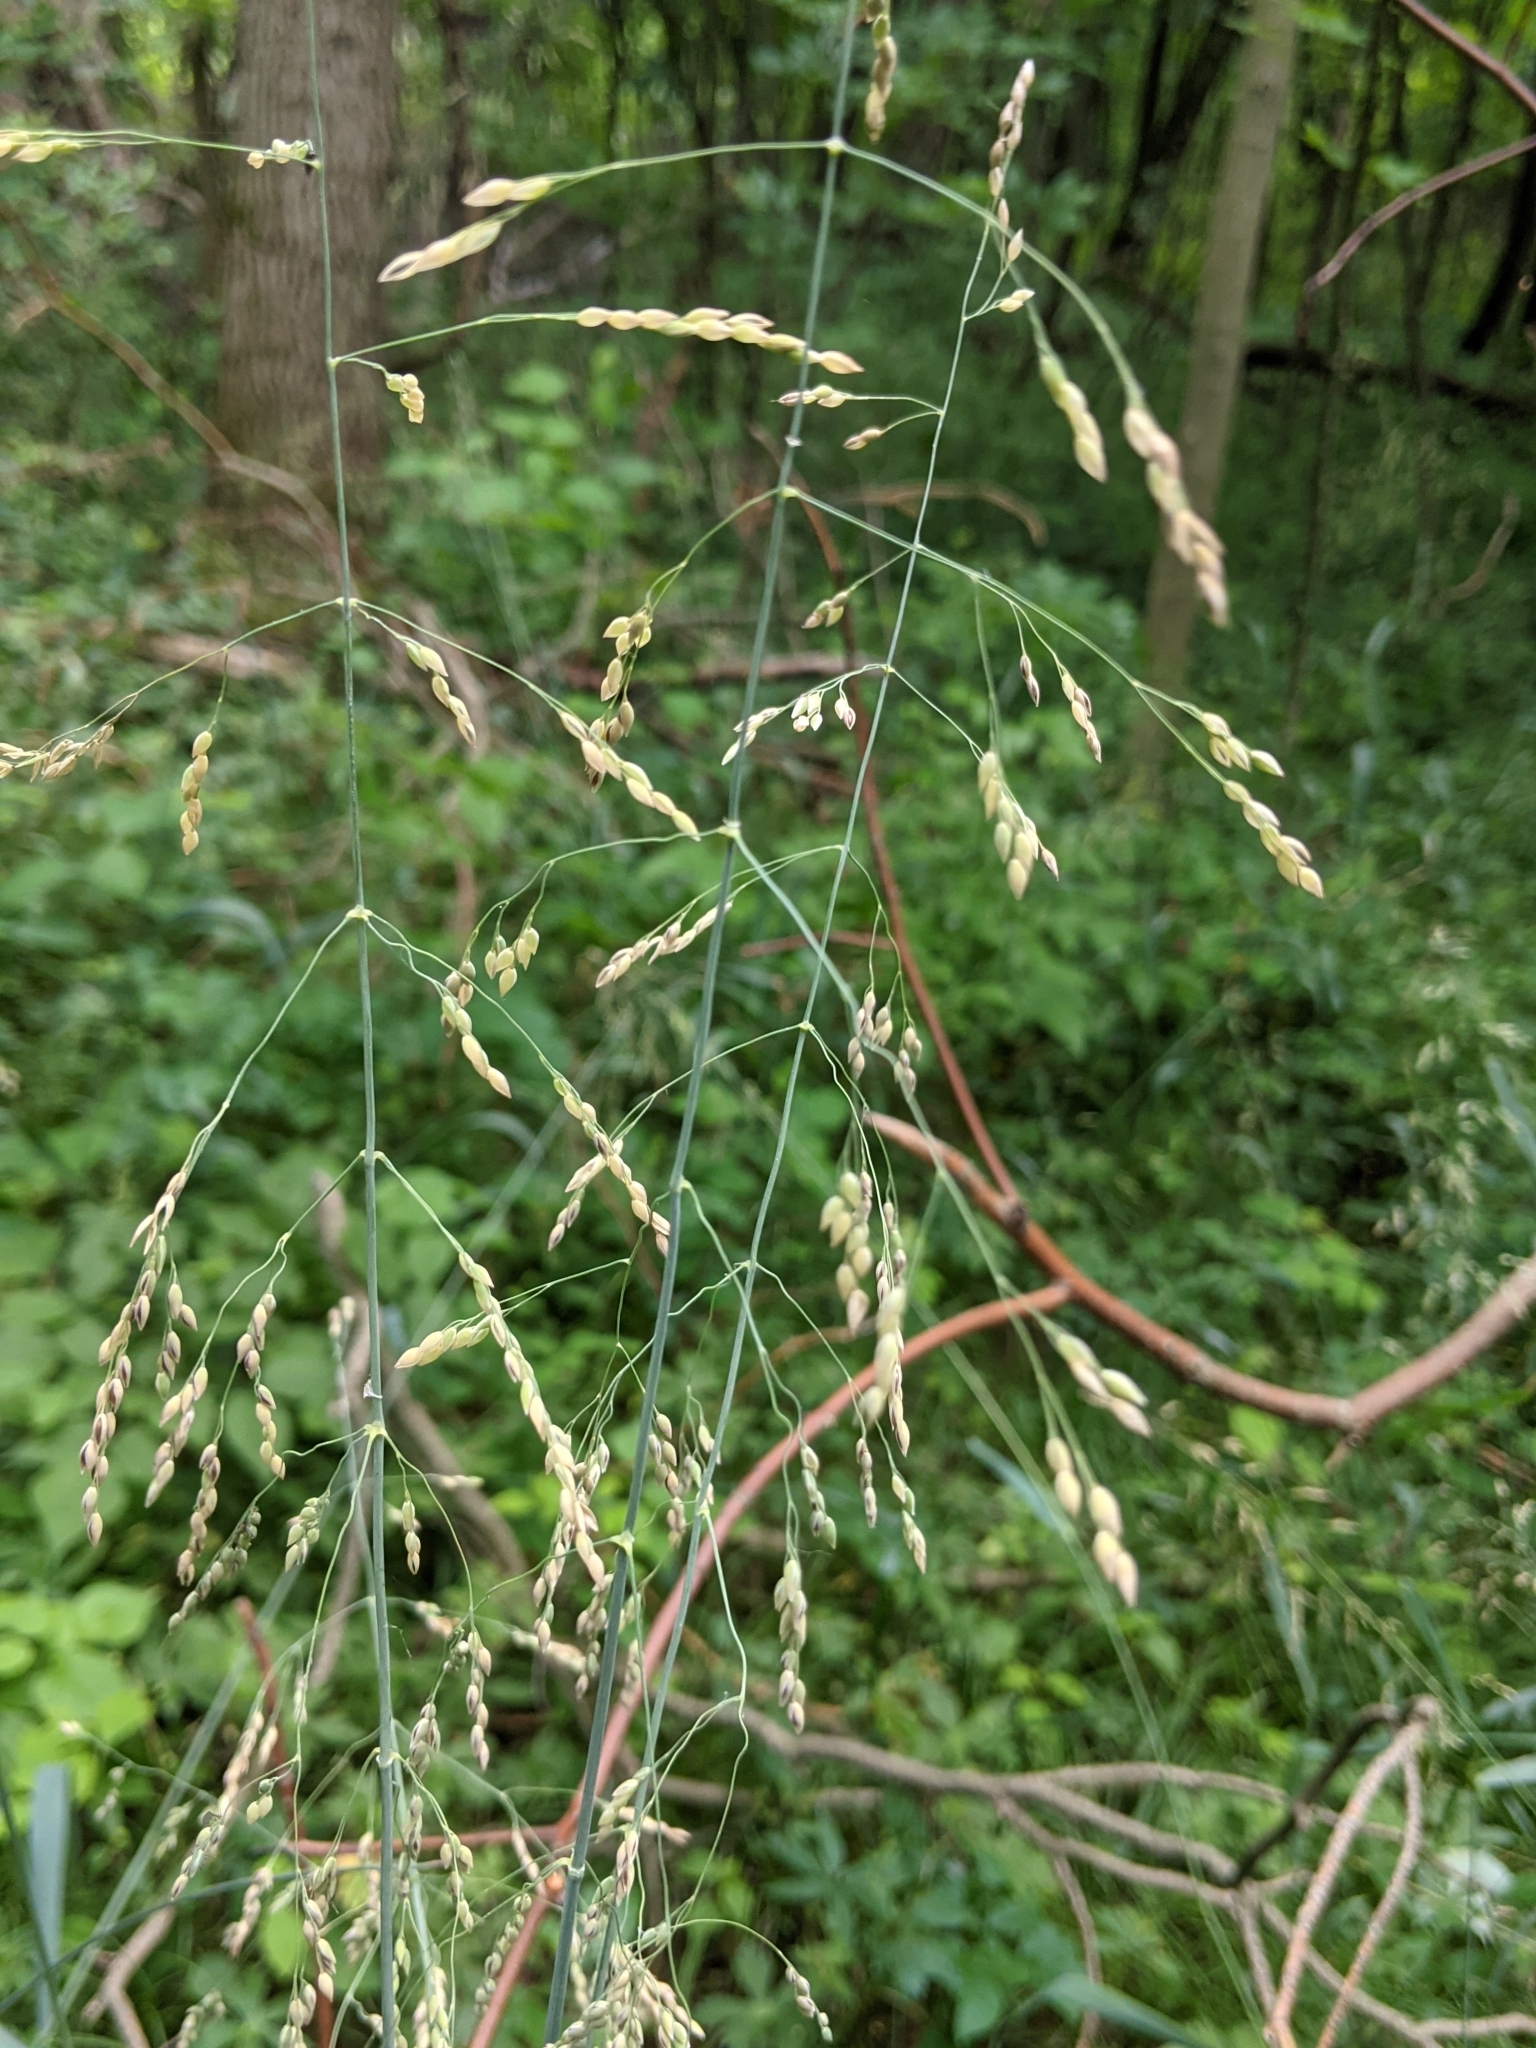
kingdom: Plantae
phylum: Tracheophyta
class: Liliopsida
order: Poales
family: Poaceae
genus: Milium
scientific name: Milium effusum
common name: Wood millet
